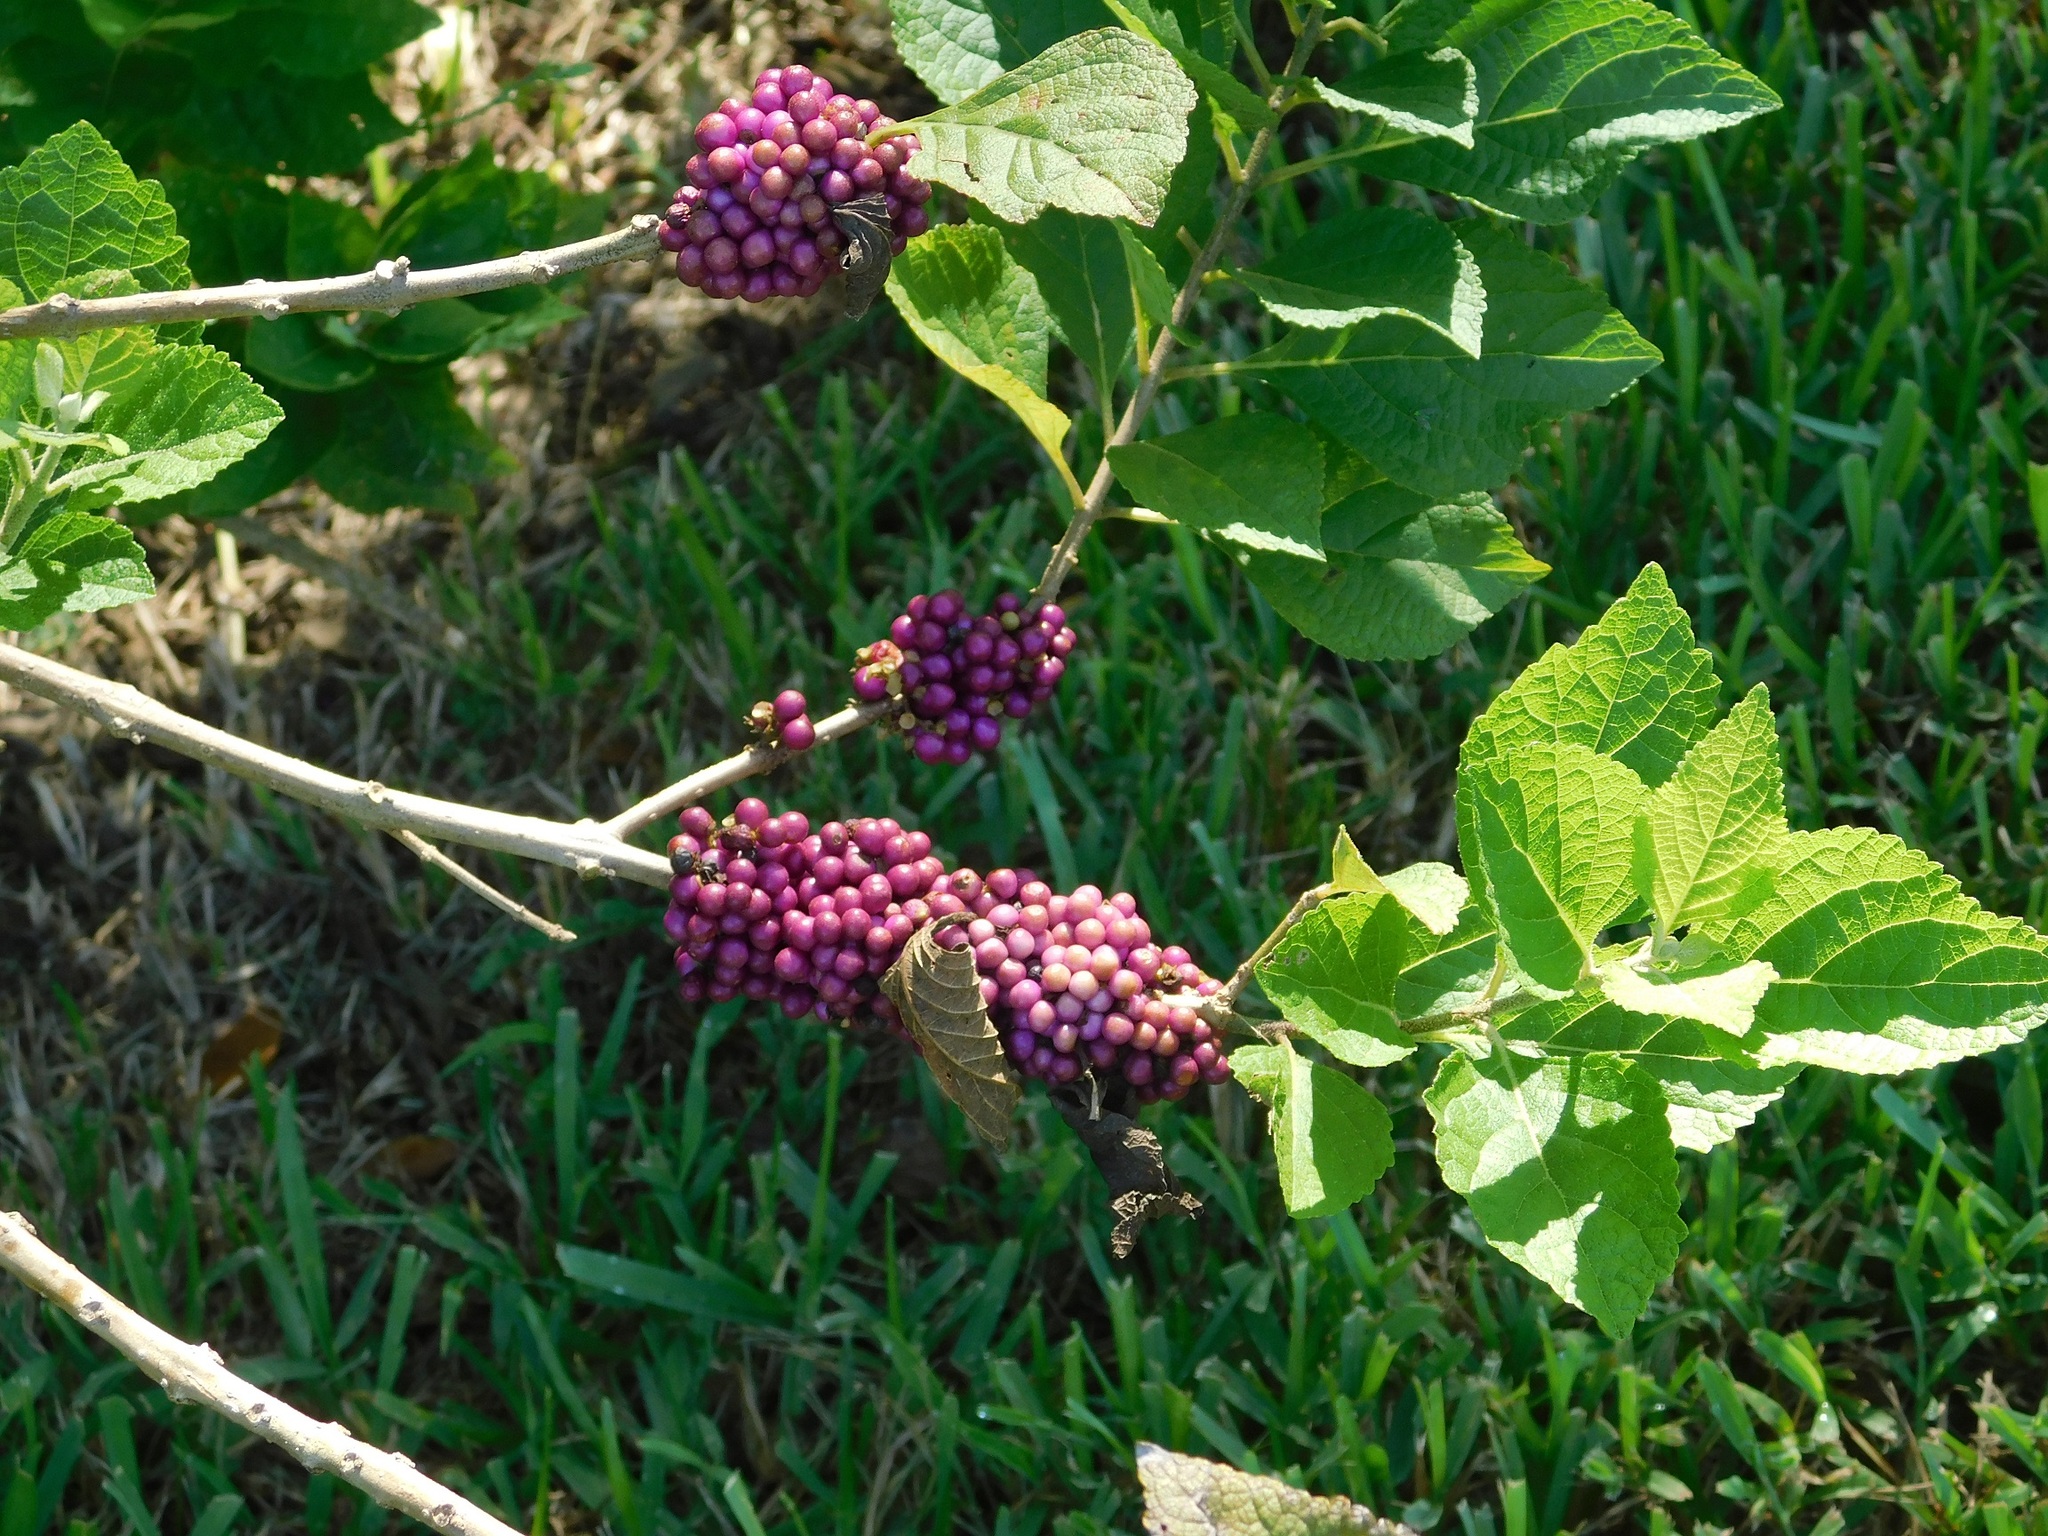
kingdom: Plantae
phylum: Tracheophyta
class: Magnoliopsida
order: Lamiales
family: Lamiaceae
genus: Callicarpa
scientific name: Callicarpa americana
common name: American beautyberry
